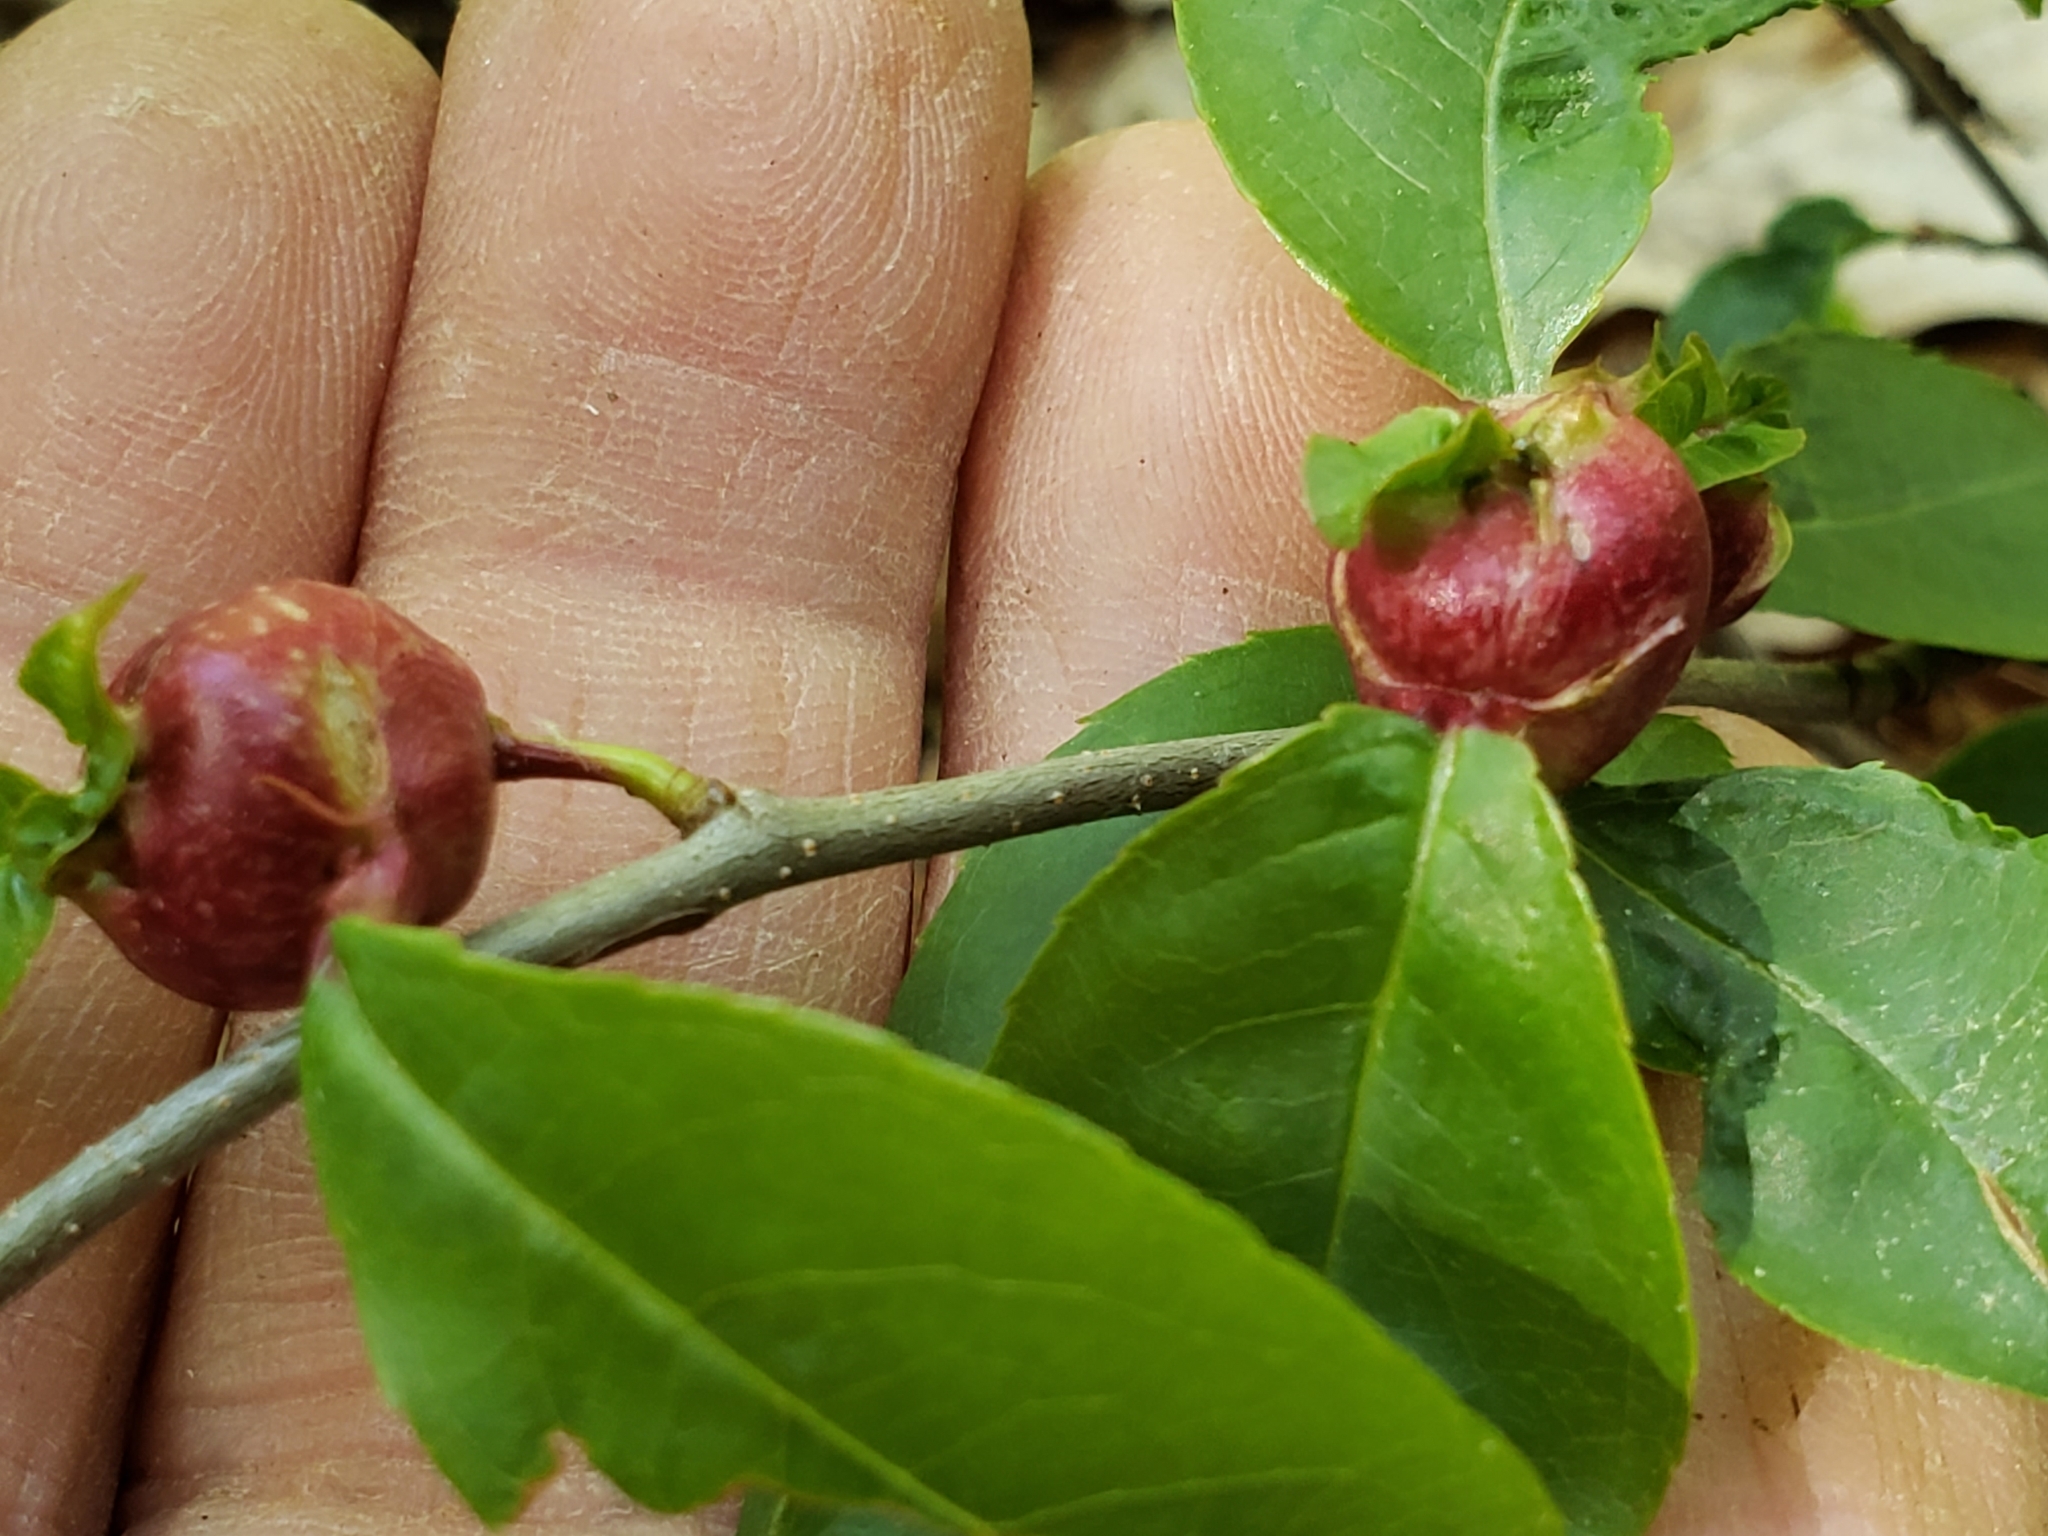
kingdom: Animalia
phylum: Arthropoda
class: Insecta
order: Diptera
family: Cecidomyiidae
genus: Contarinia
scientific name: Contarinia cerasiserotinae
